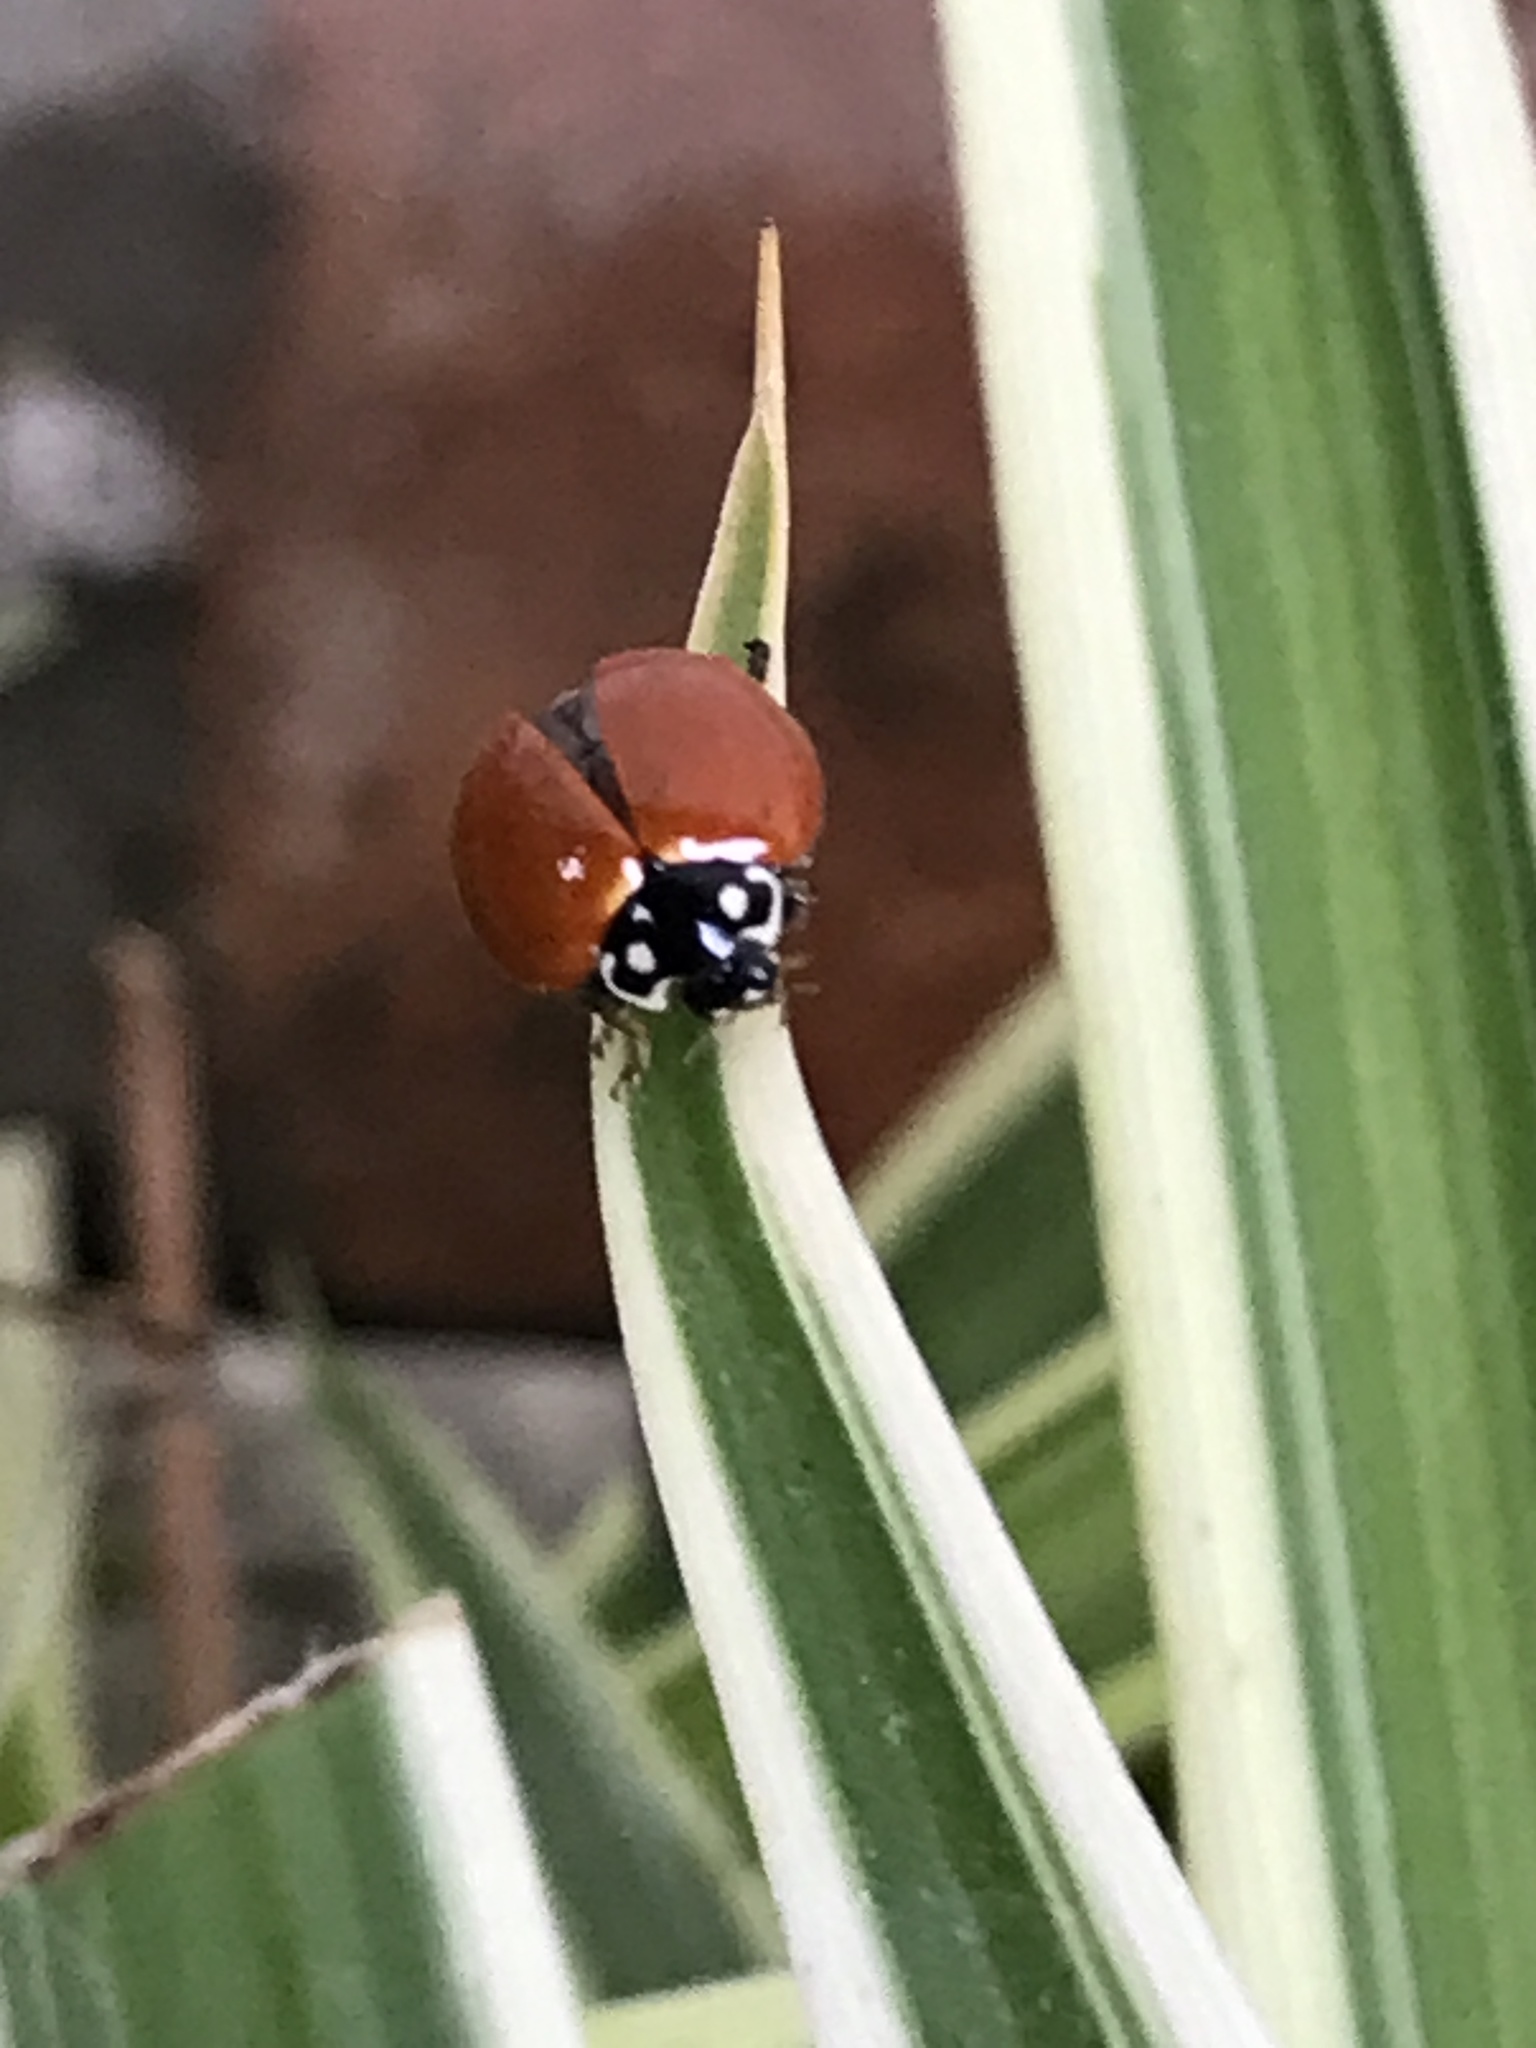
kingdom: Animalia
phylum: Arthropoda
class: Insecta
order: Coleoptera
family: Coccinellidae
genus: Cycloneda
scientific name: Cycloneda sanguinea
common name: Ladybird beetle
